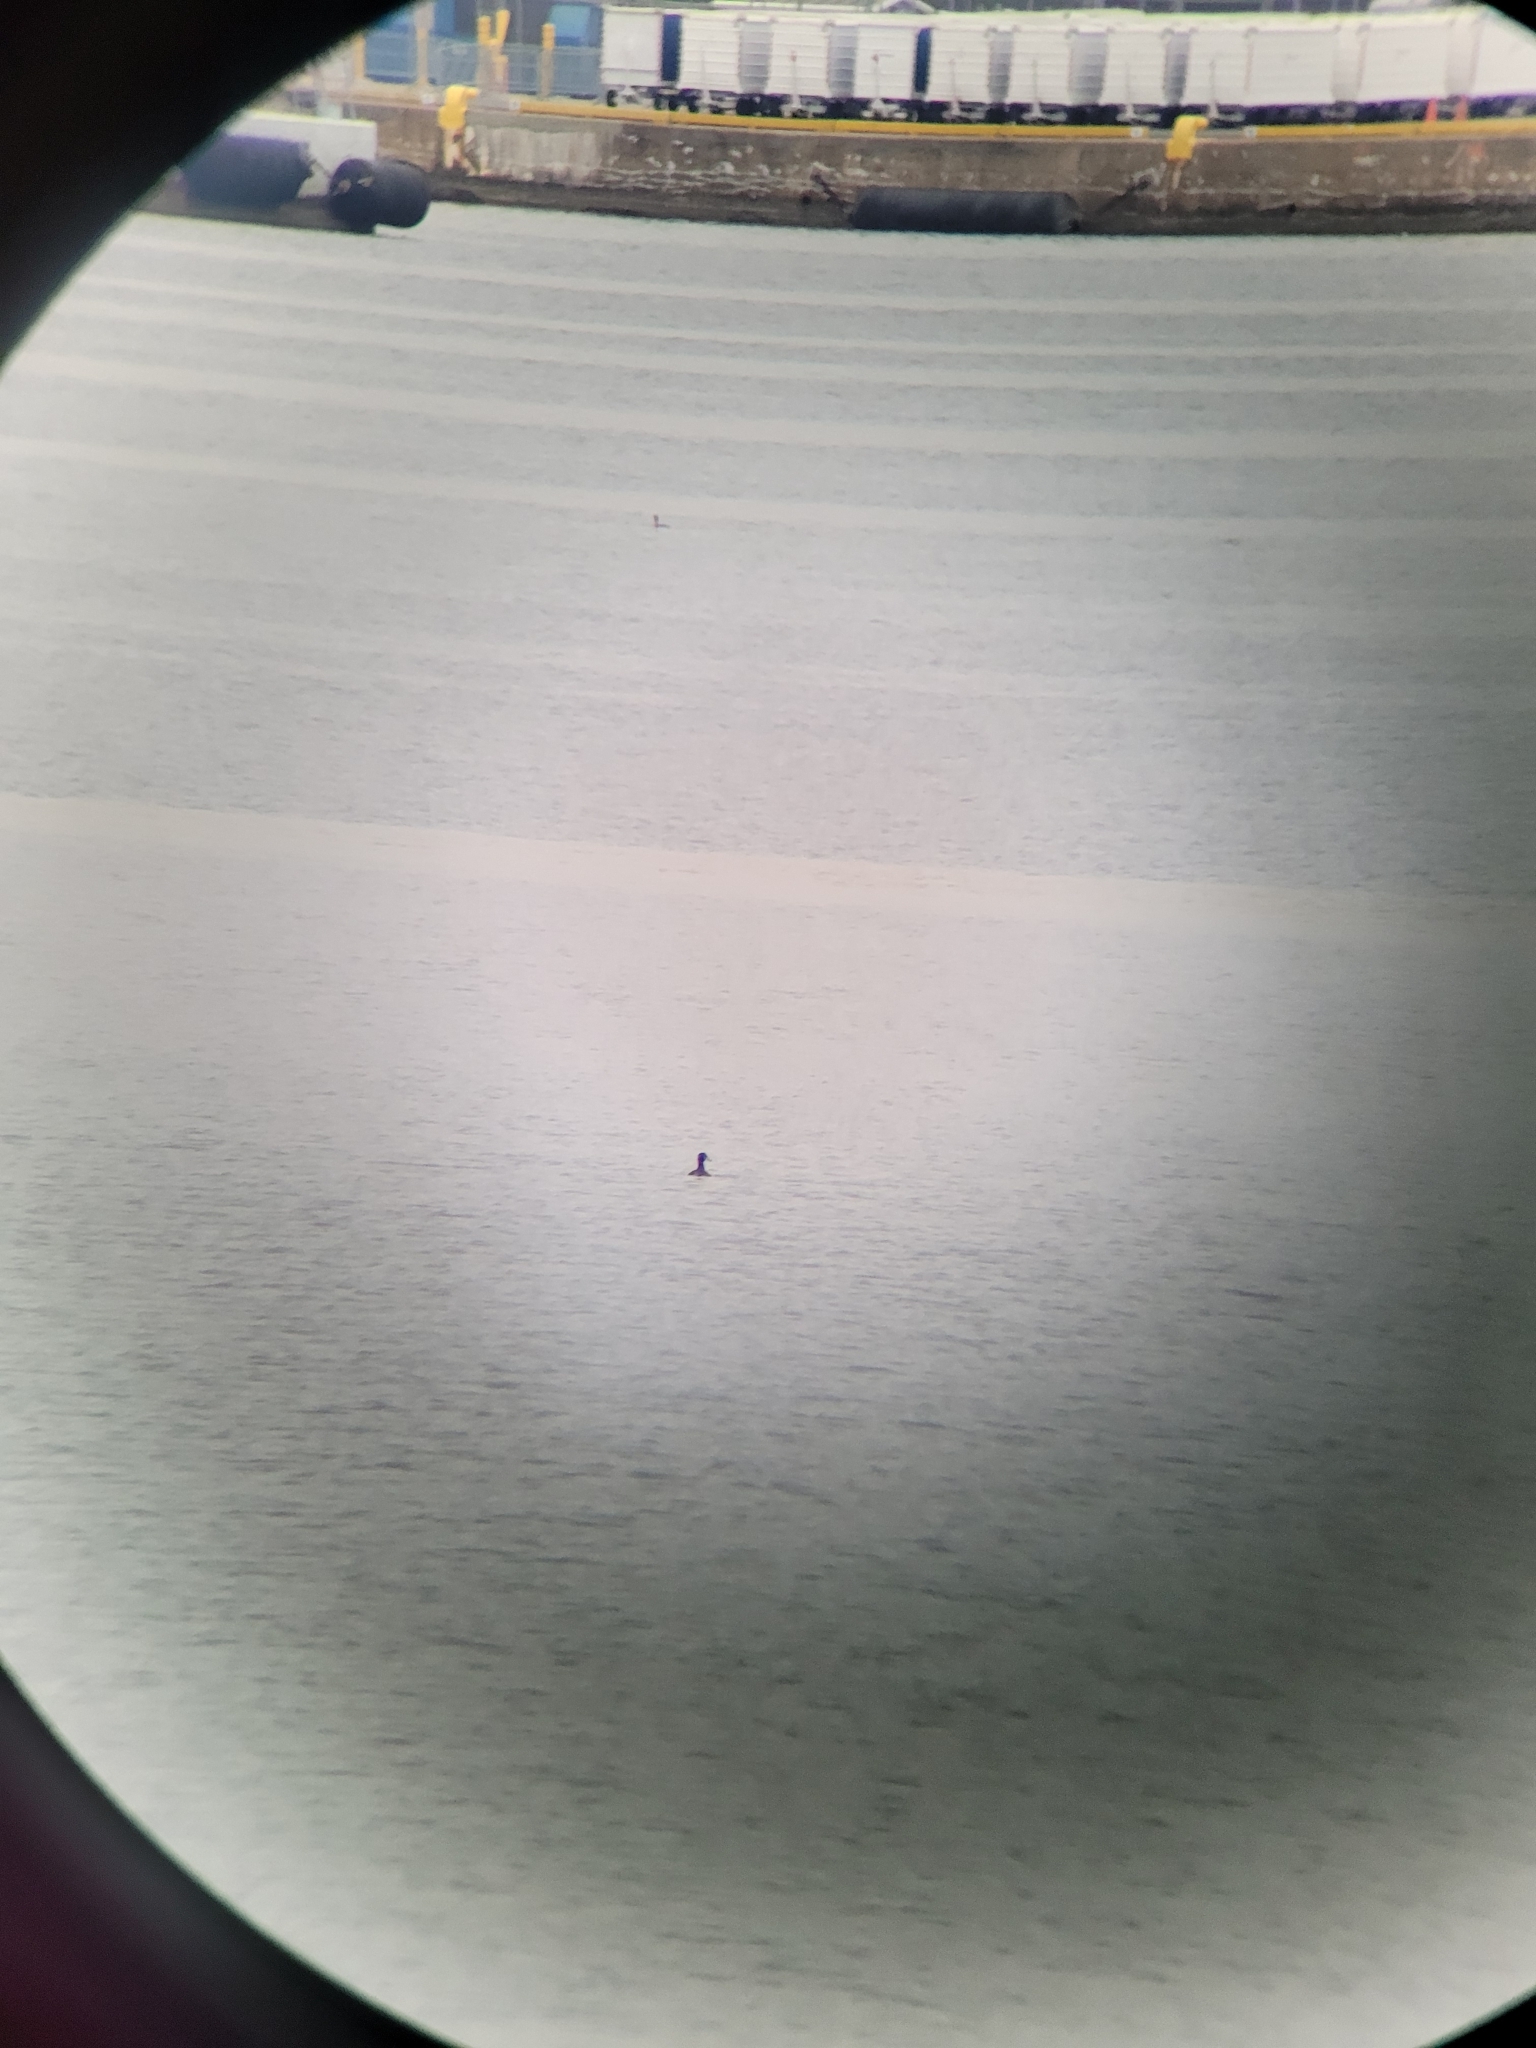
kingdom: Animalia
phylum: Chordata
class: Aves
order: Anseriformes
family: Anatidae
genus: Melanitta
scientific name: Melanitta perspicillata
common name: Surf scoter
